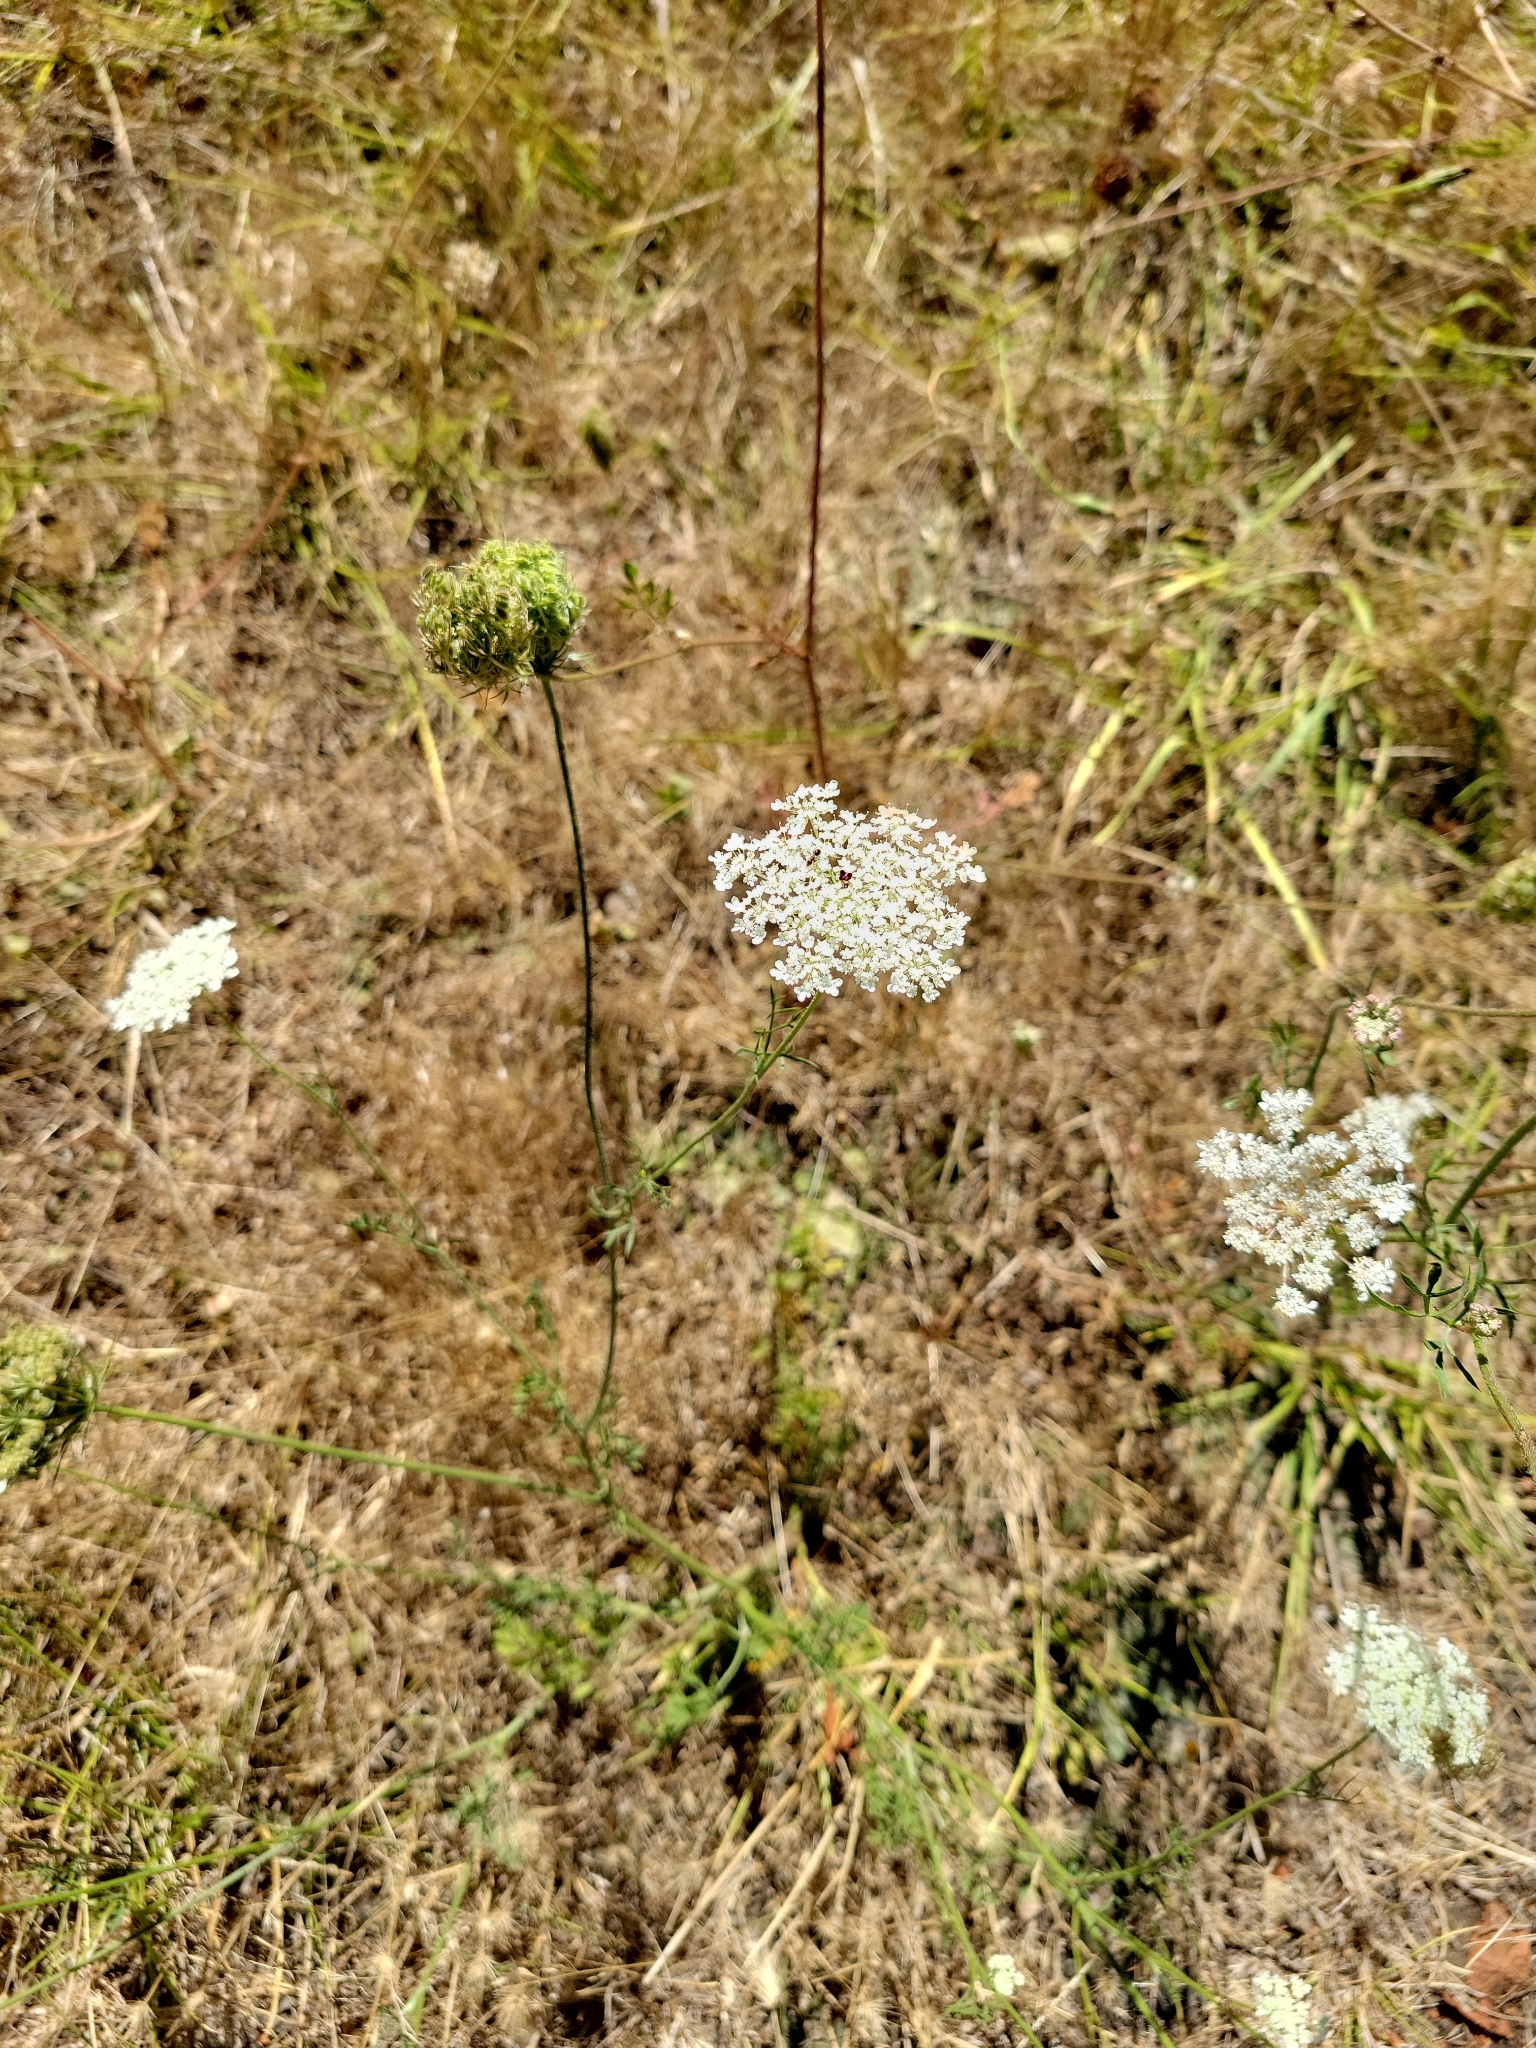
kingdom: Plantae
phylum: Tracheophyta
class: Magnoliopsida
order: Apiales
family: Apiaceae
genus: Daucus
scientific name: Daucus carota
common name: Wild carrot
